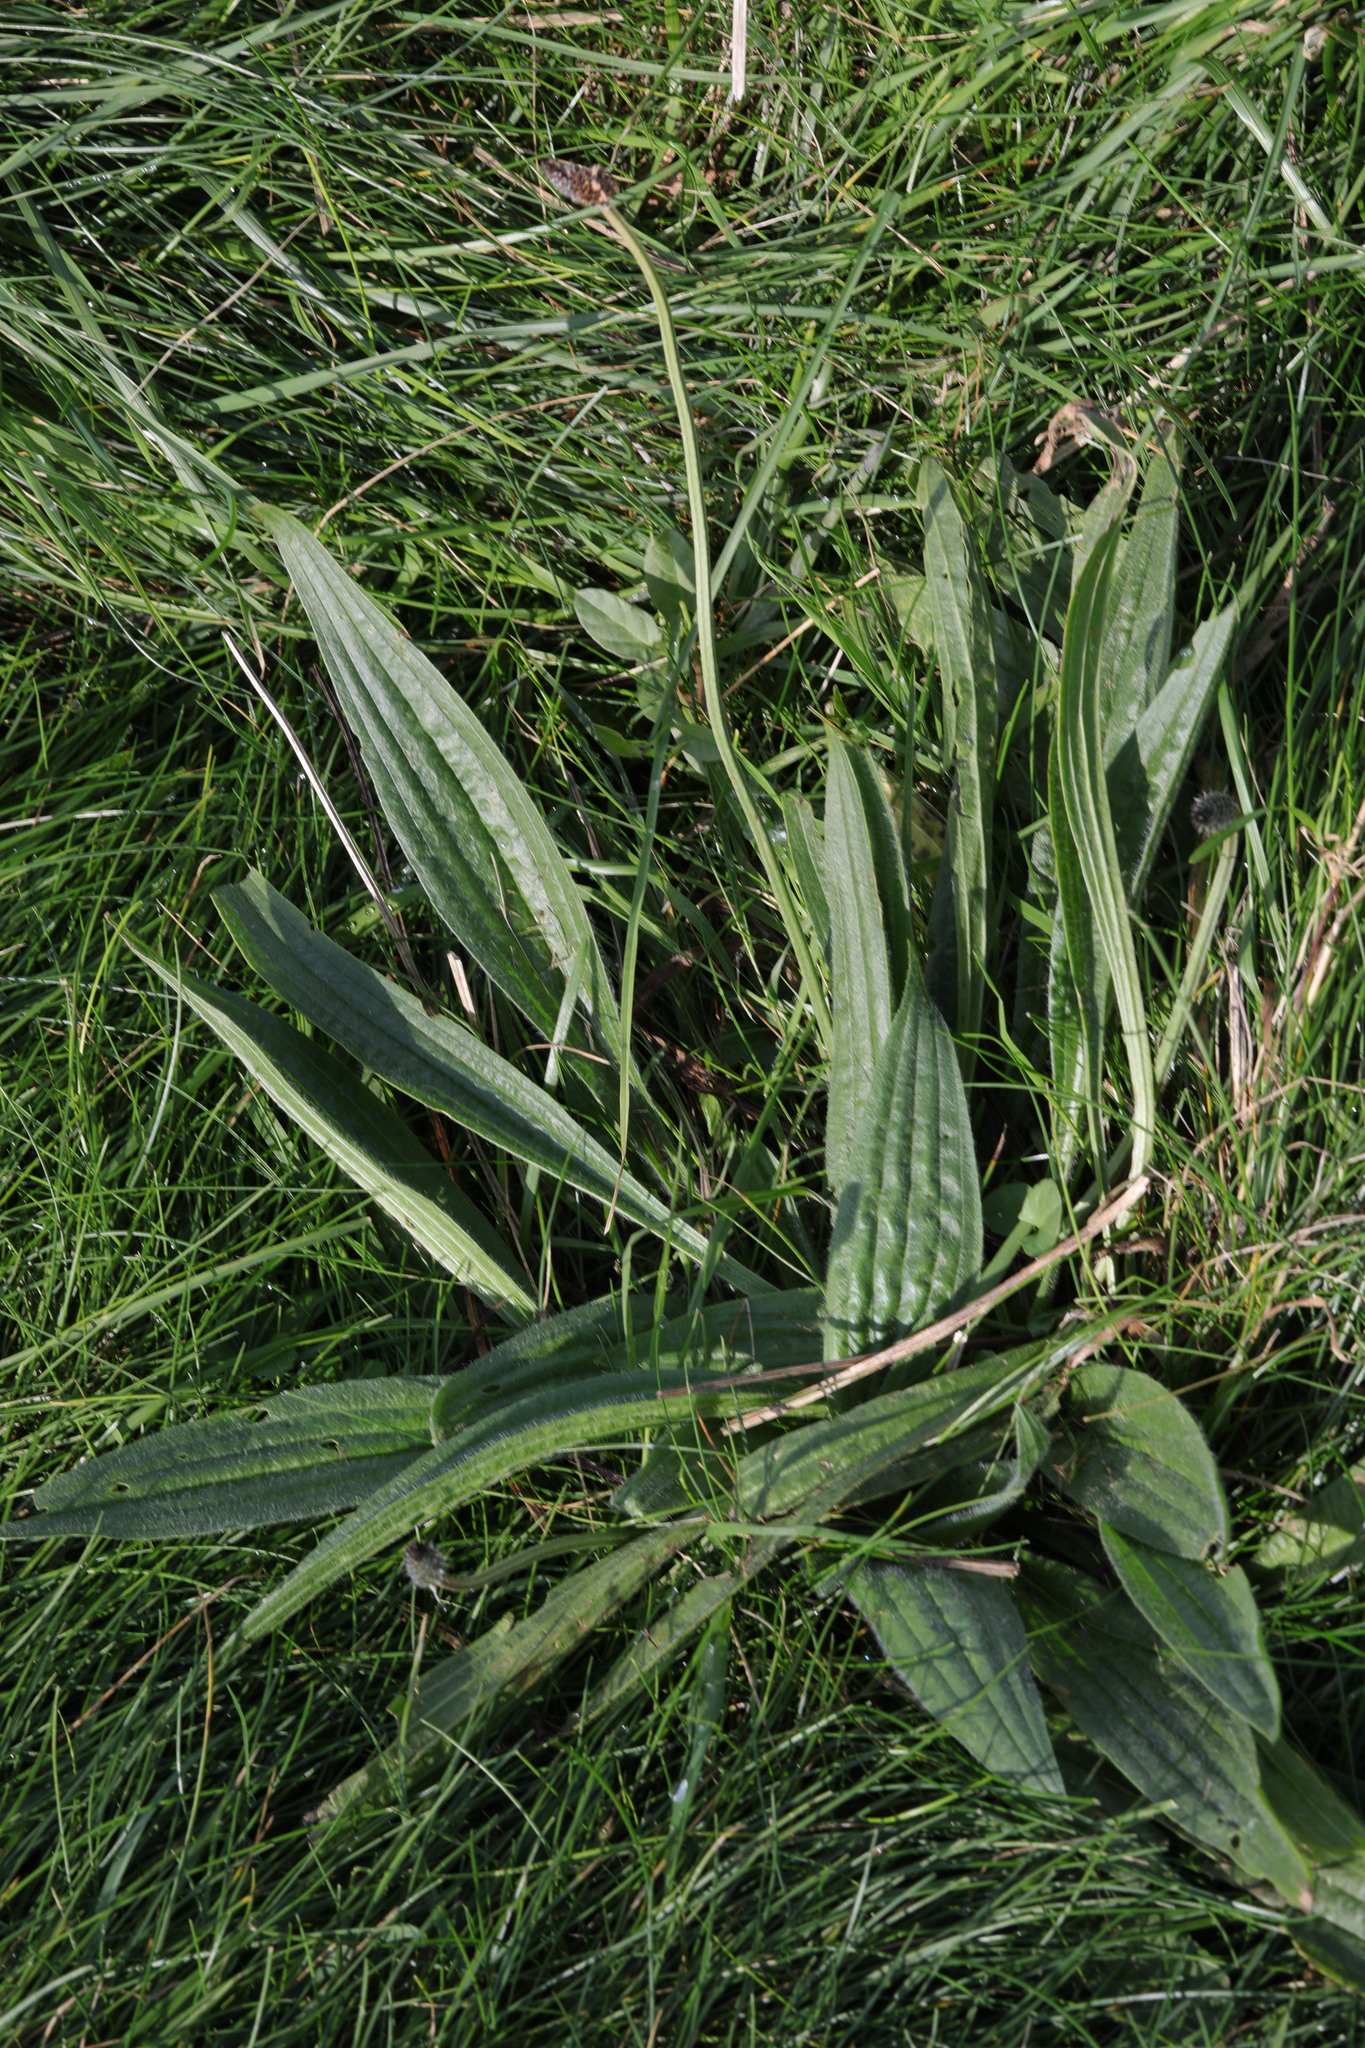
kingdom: Plantae
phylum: Tracheophyta
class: Magnoliopsida
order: Lamiales
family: Plantaginaceae
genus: Plantago
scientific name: Plantago lanceolata
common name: Ribwort plantain
